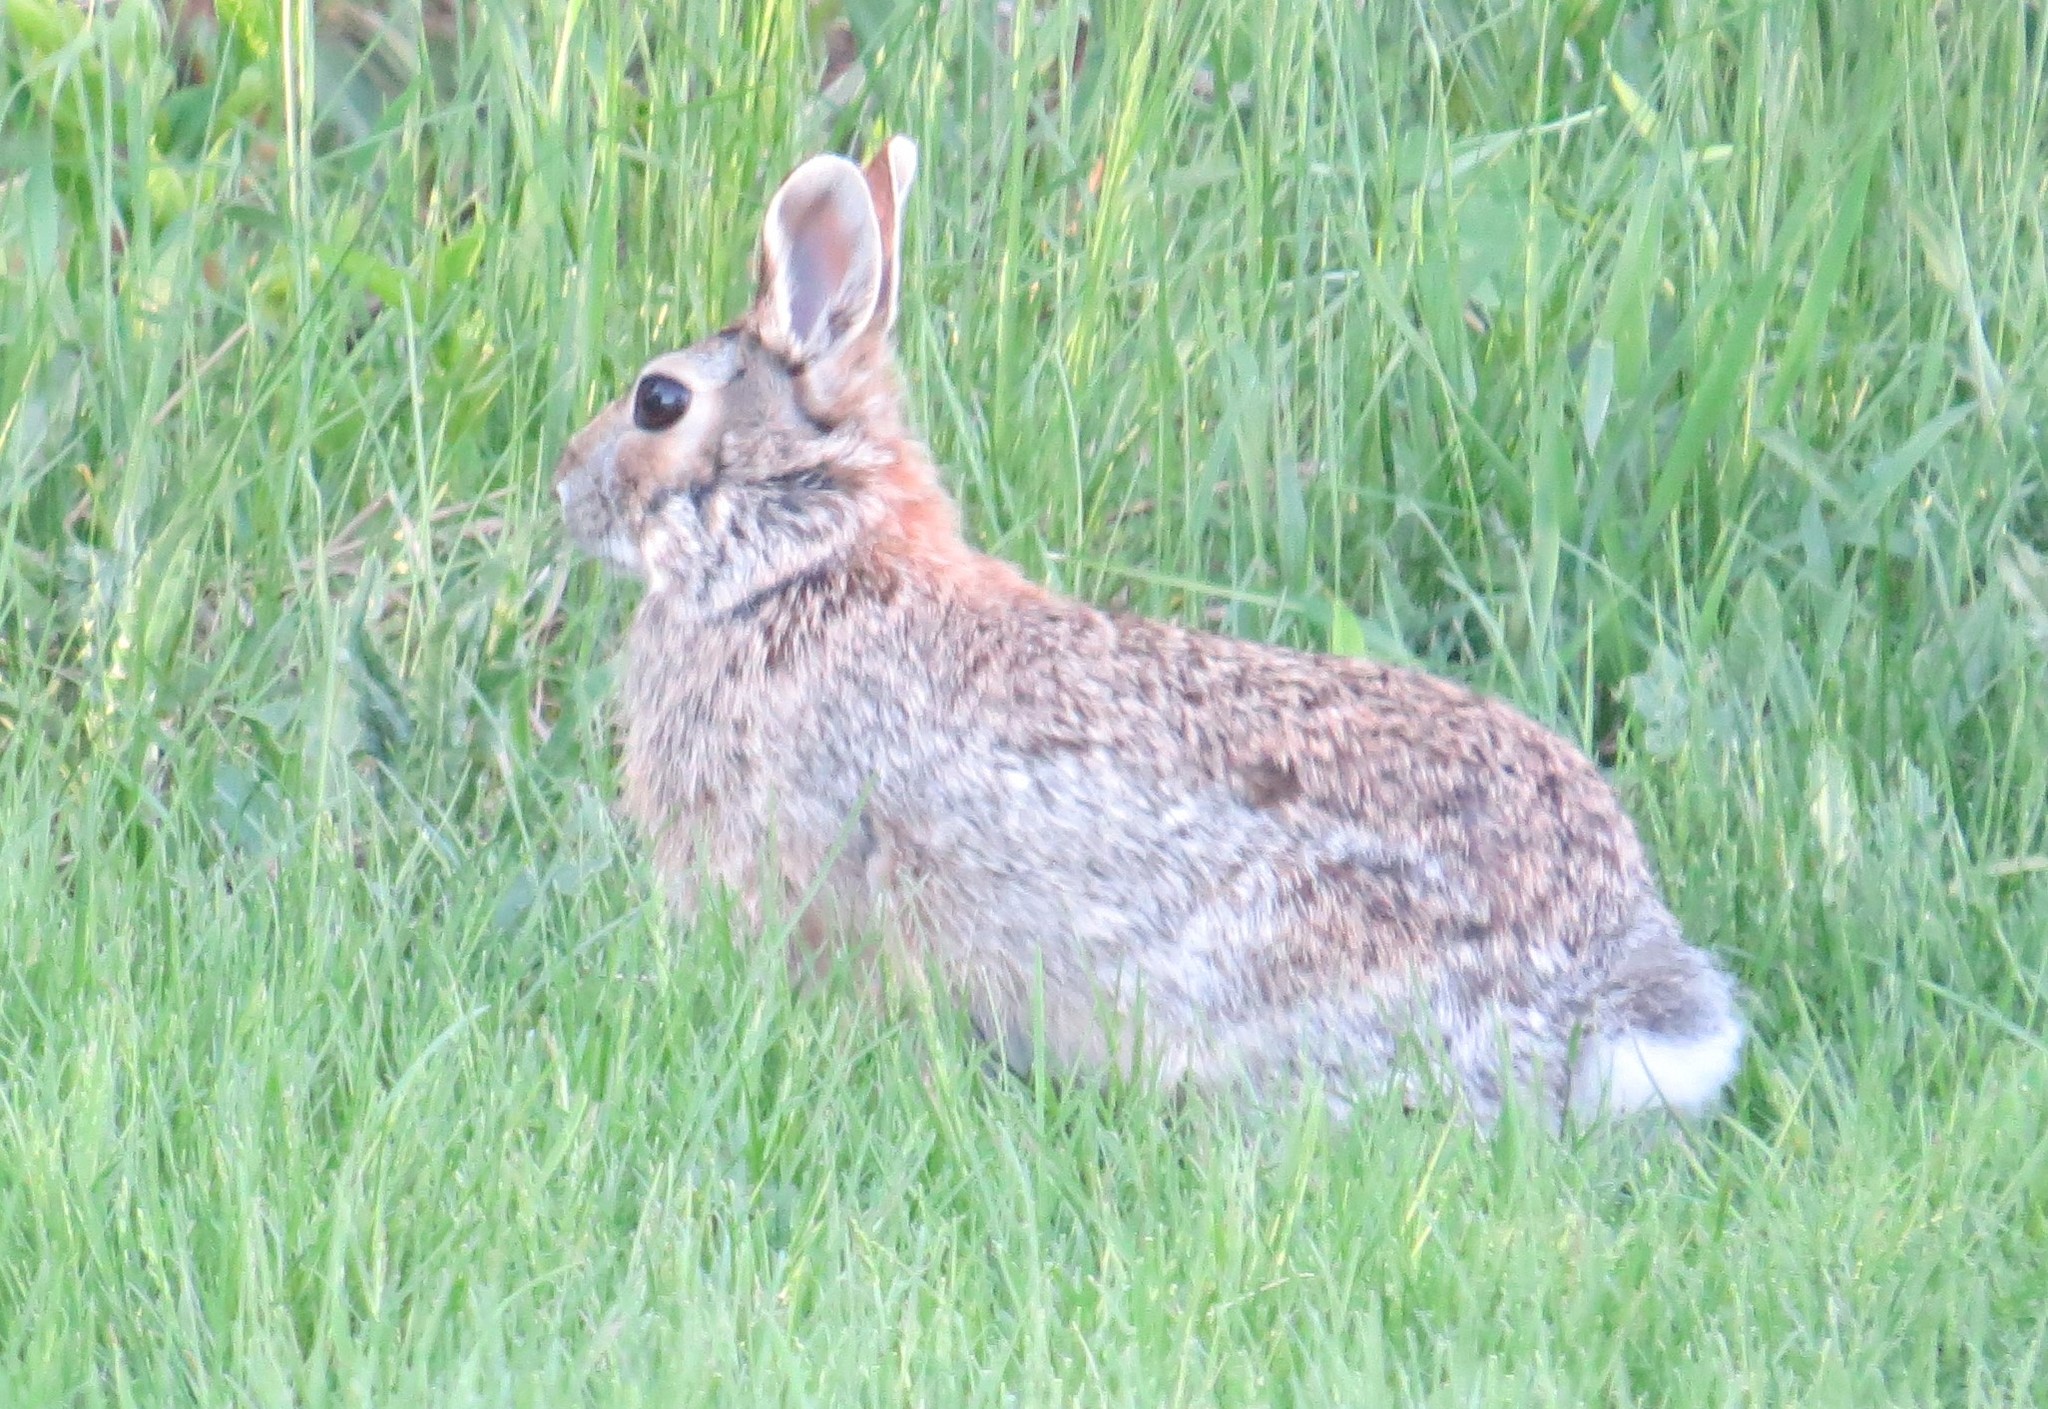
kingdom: Animalia
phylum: Chordata
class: Mammalia
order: Lagomorpha
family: Leporidae
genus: Sylvilagus
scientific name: Sylvilagus floridanus
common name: Eastern cottontail
